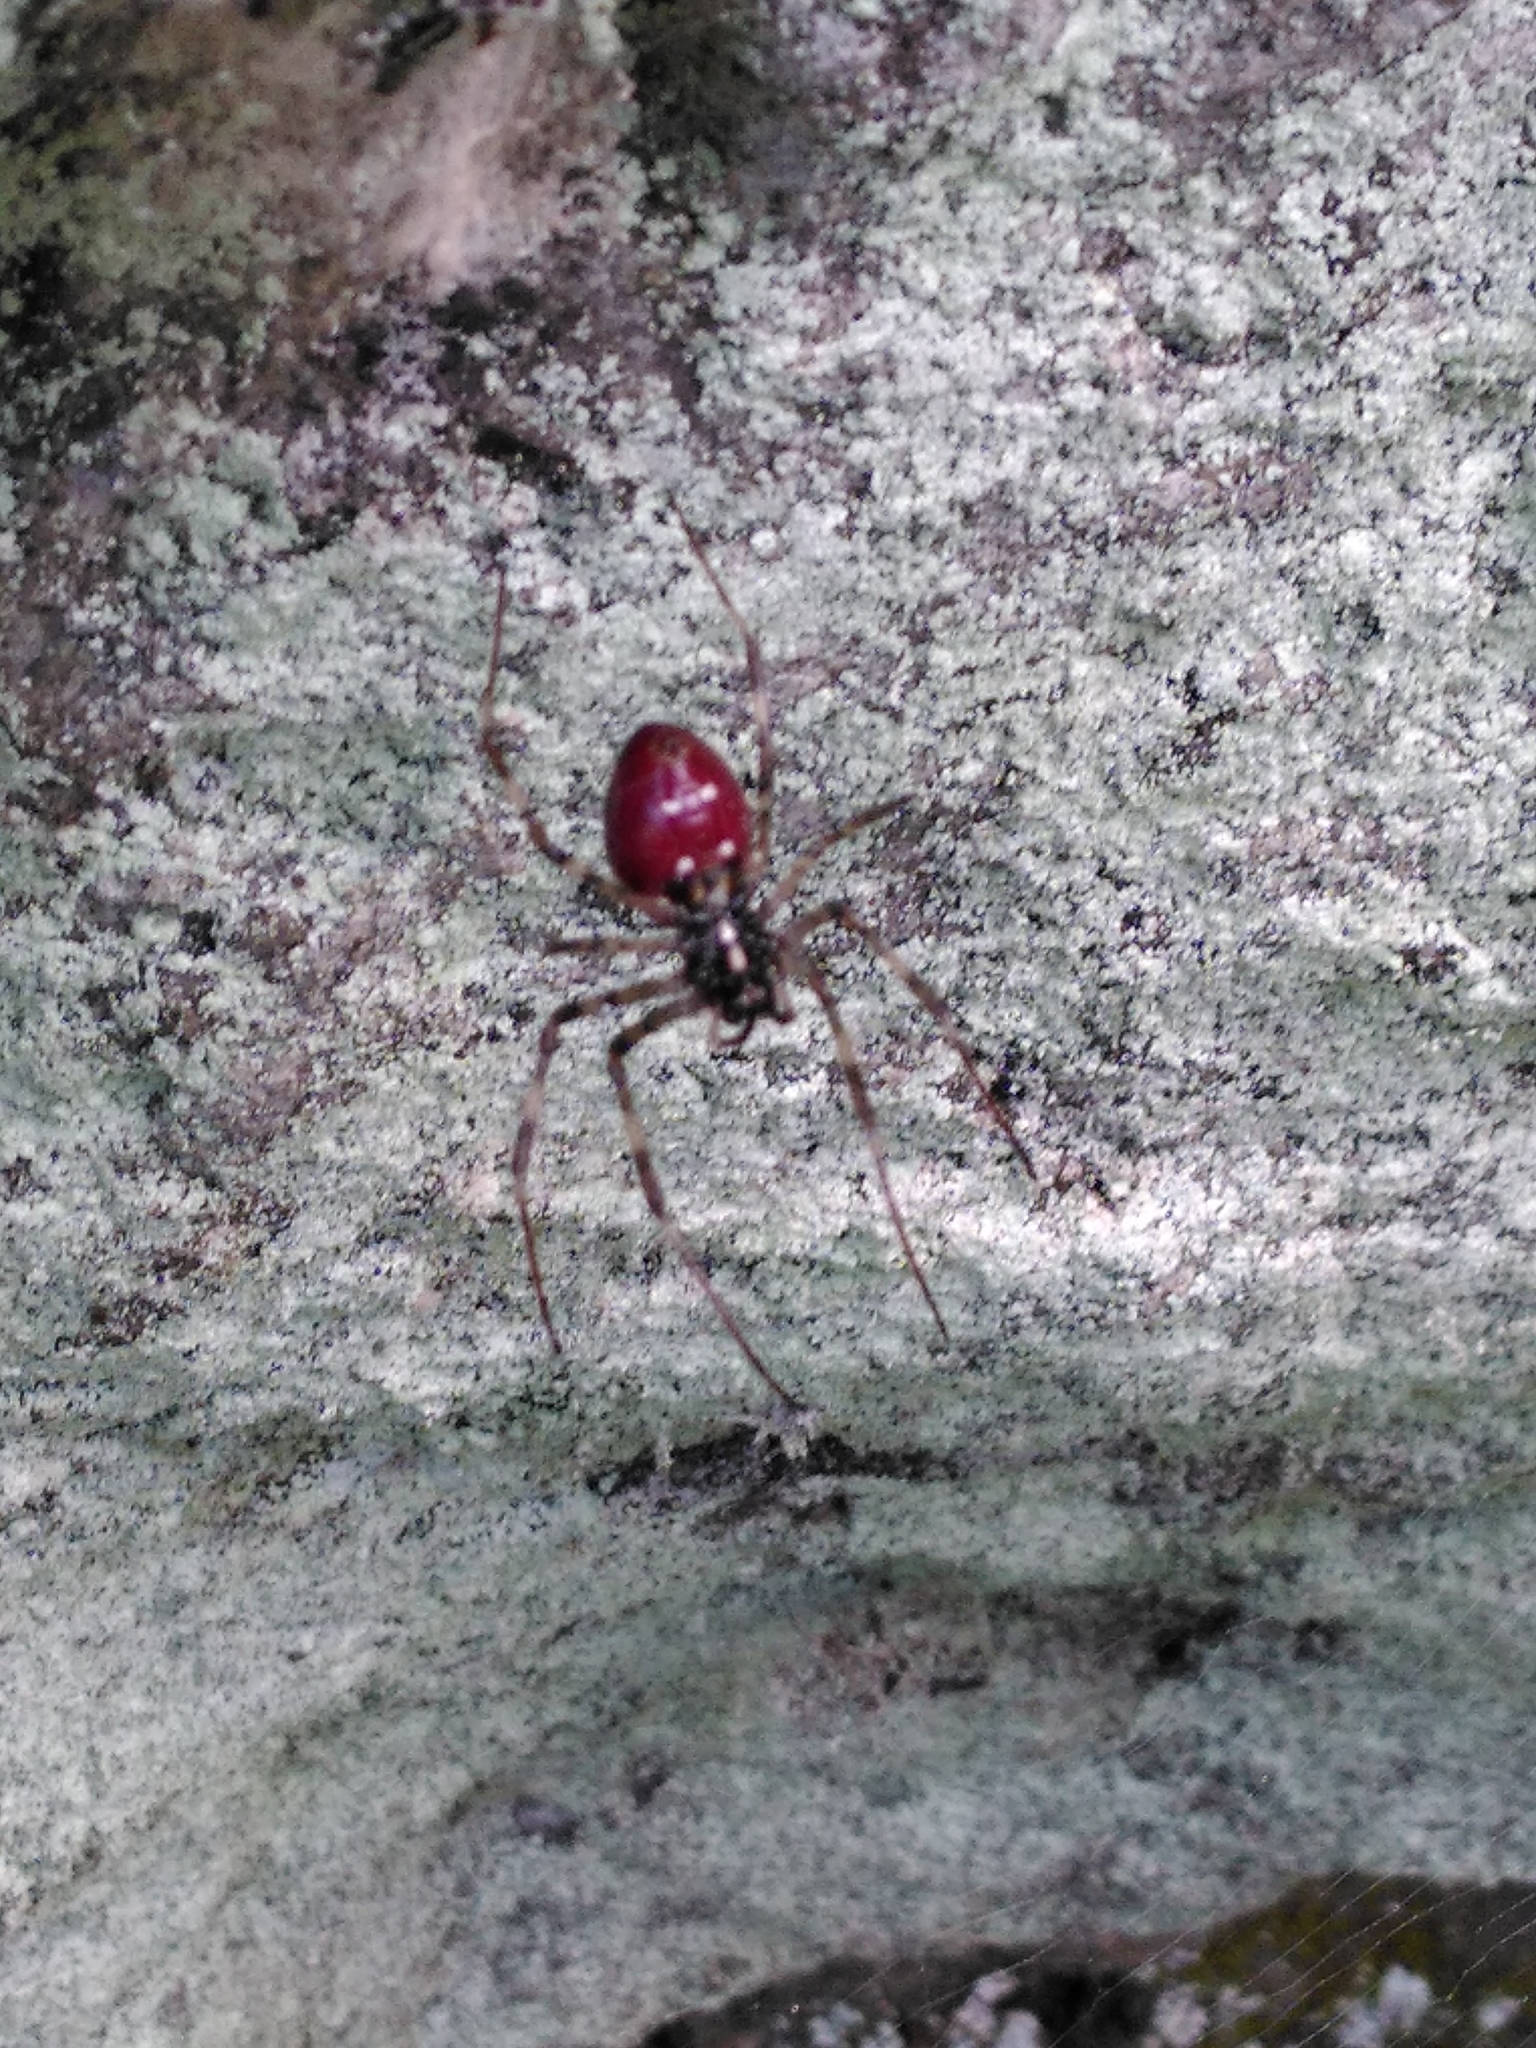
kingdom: Animalia
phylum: Arthropoda
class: Arachnida
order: Araneae
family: Araneidae
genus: Nephilingis
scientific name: Nephilingis borbonica
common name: Reunion hermit spider
